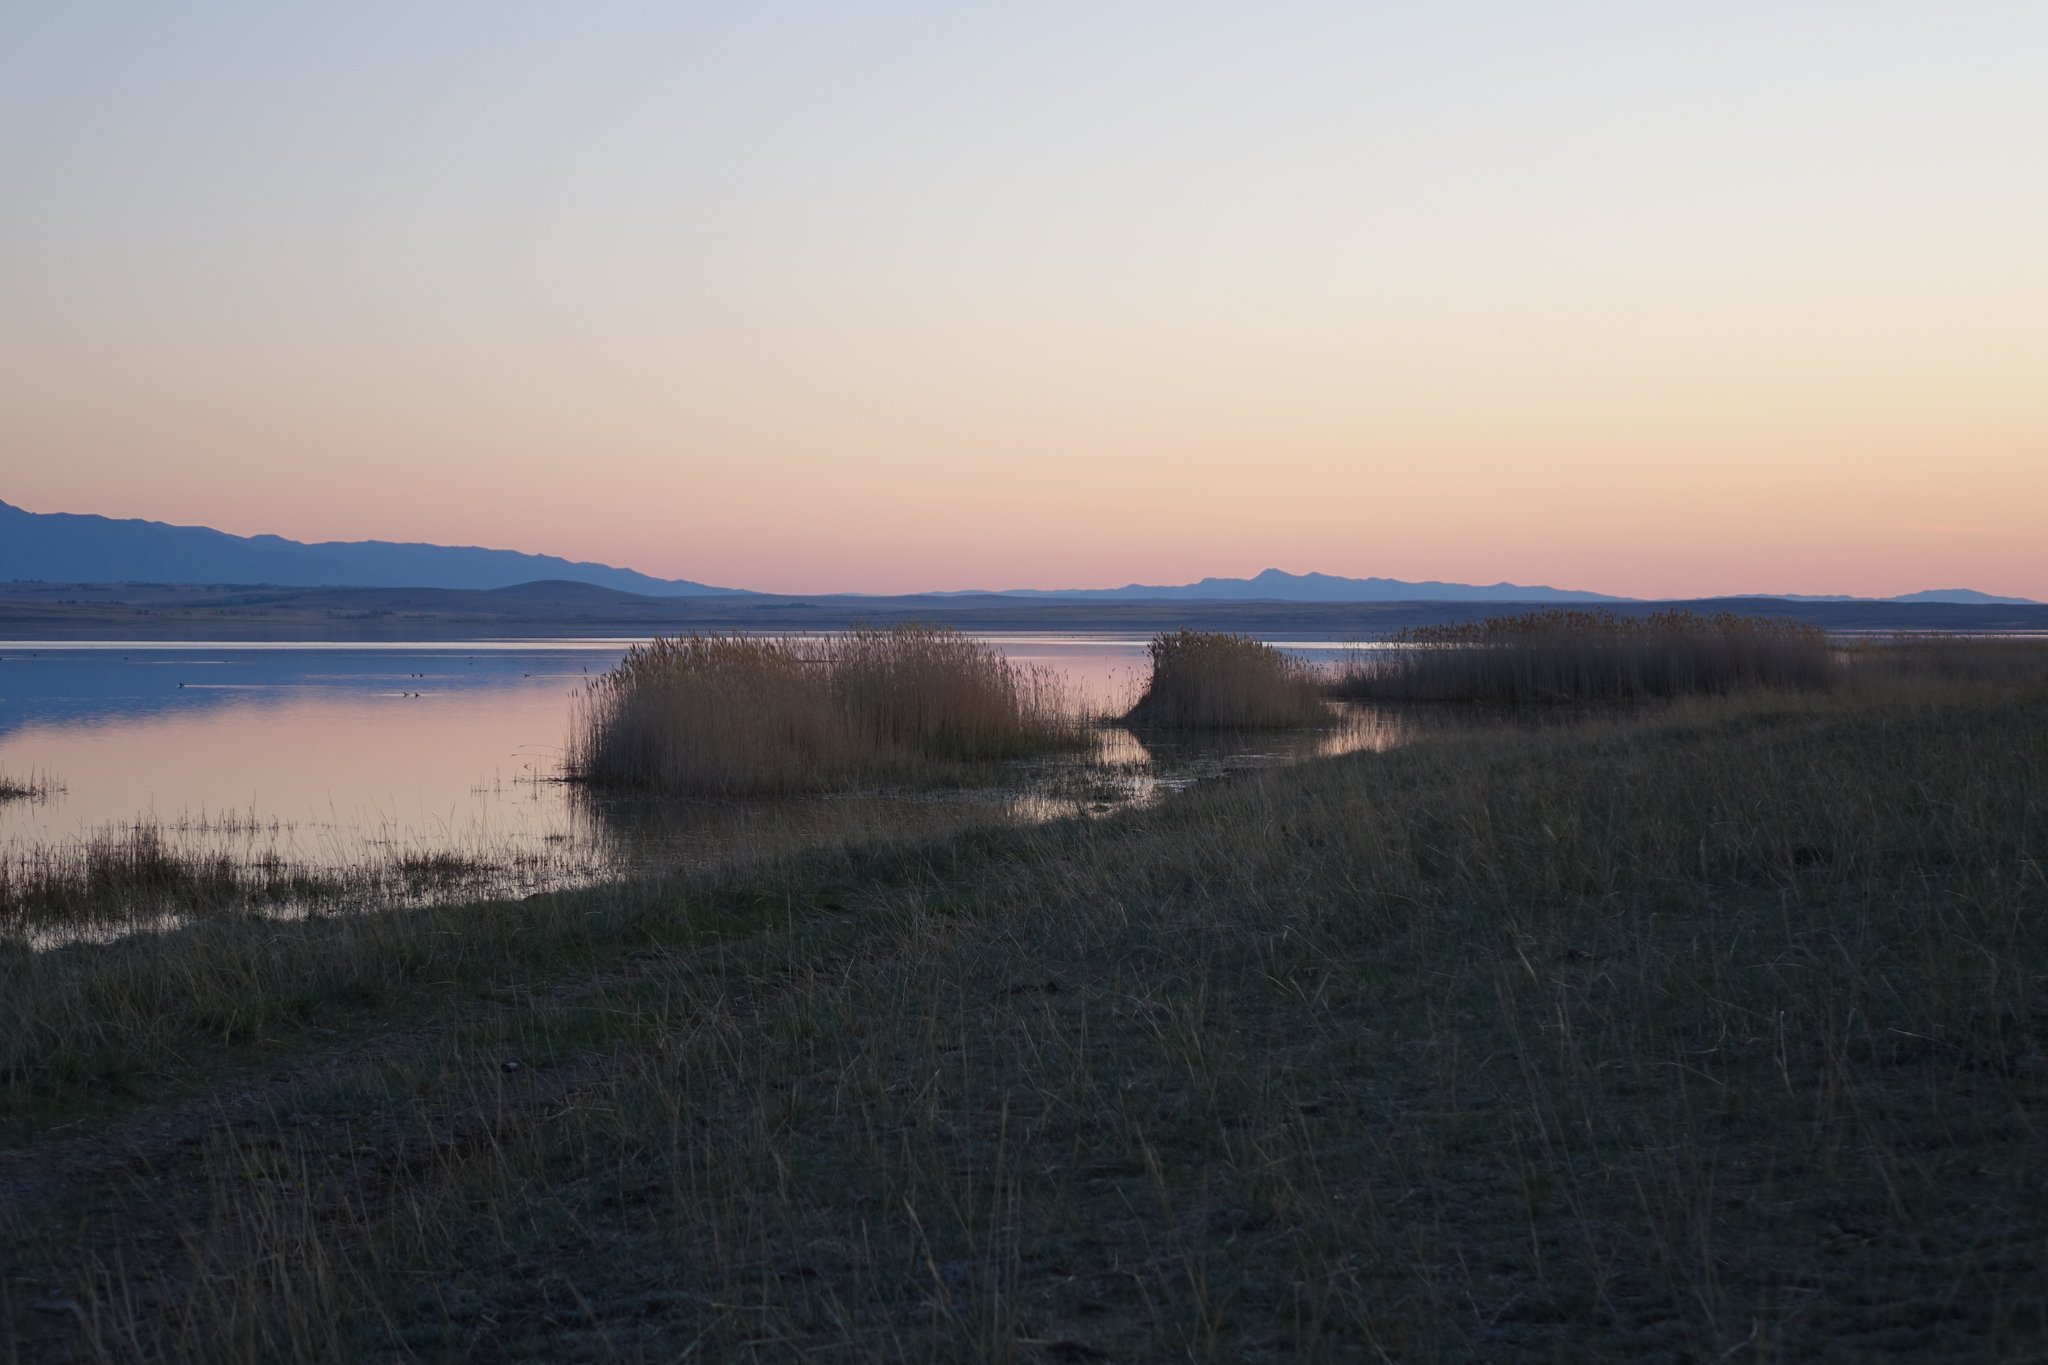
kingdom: Plantae
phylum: Tracheophyta
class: Liliopsida
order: Poales
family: Poaceae
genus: Phragmites
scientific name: Phragmites australis
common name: Common reed
